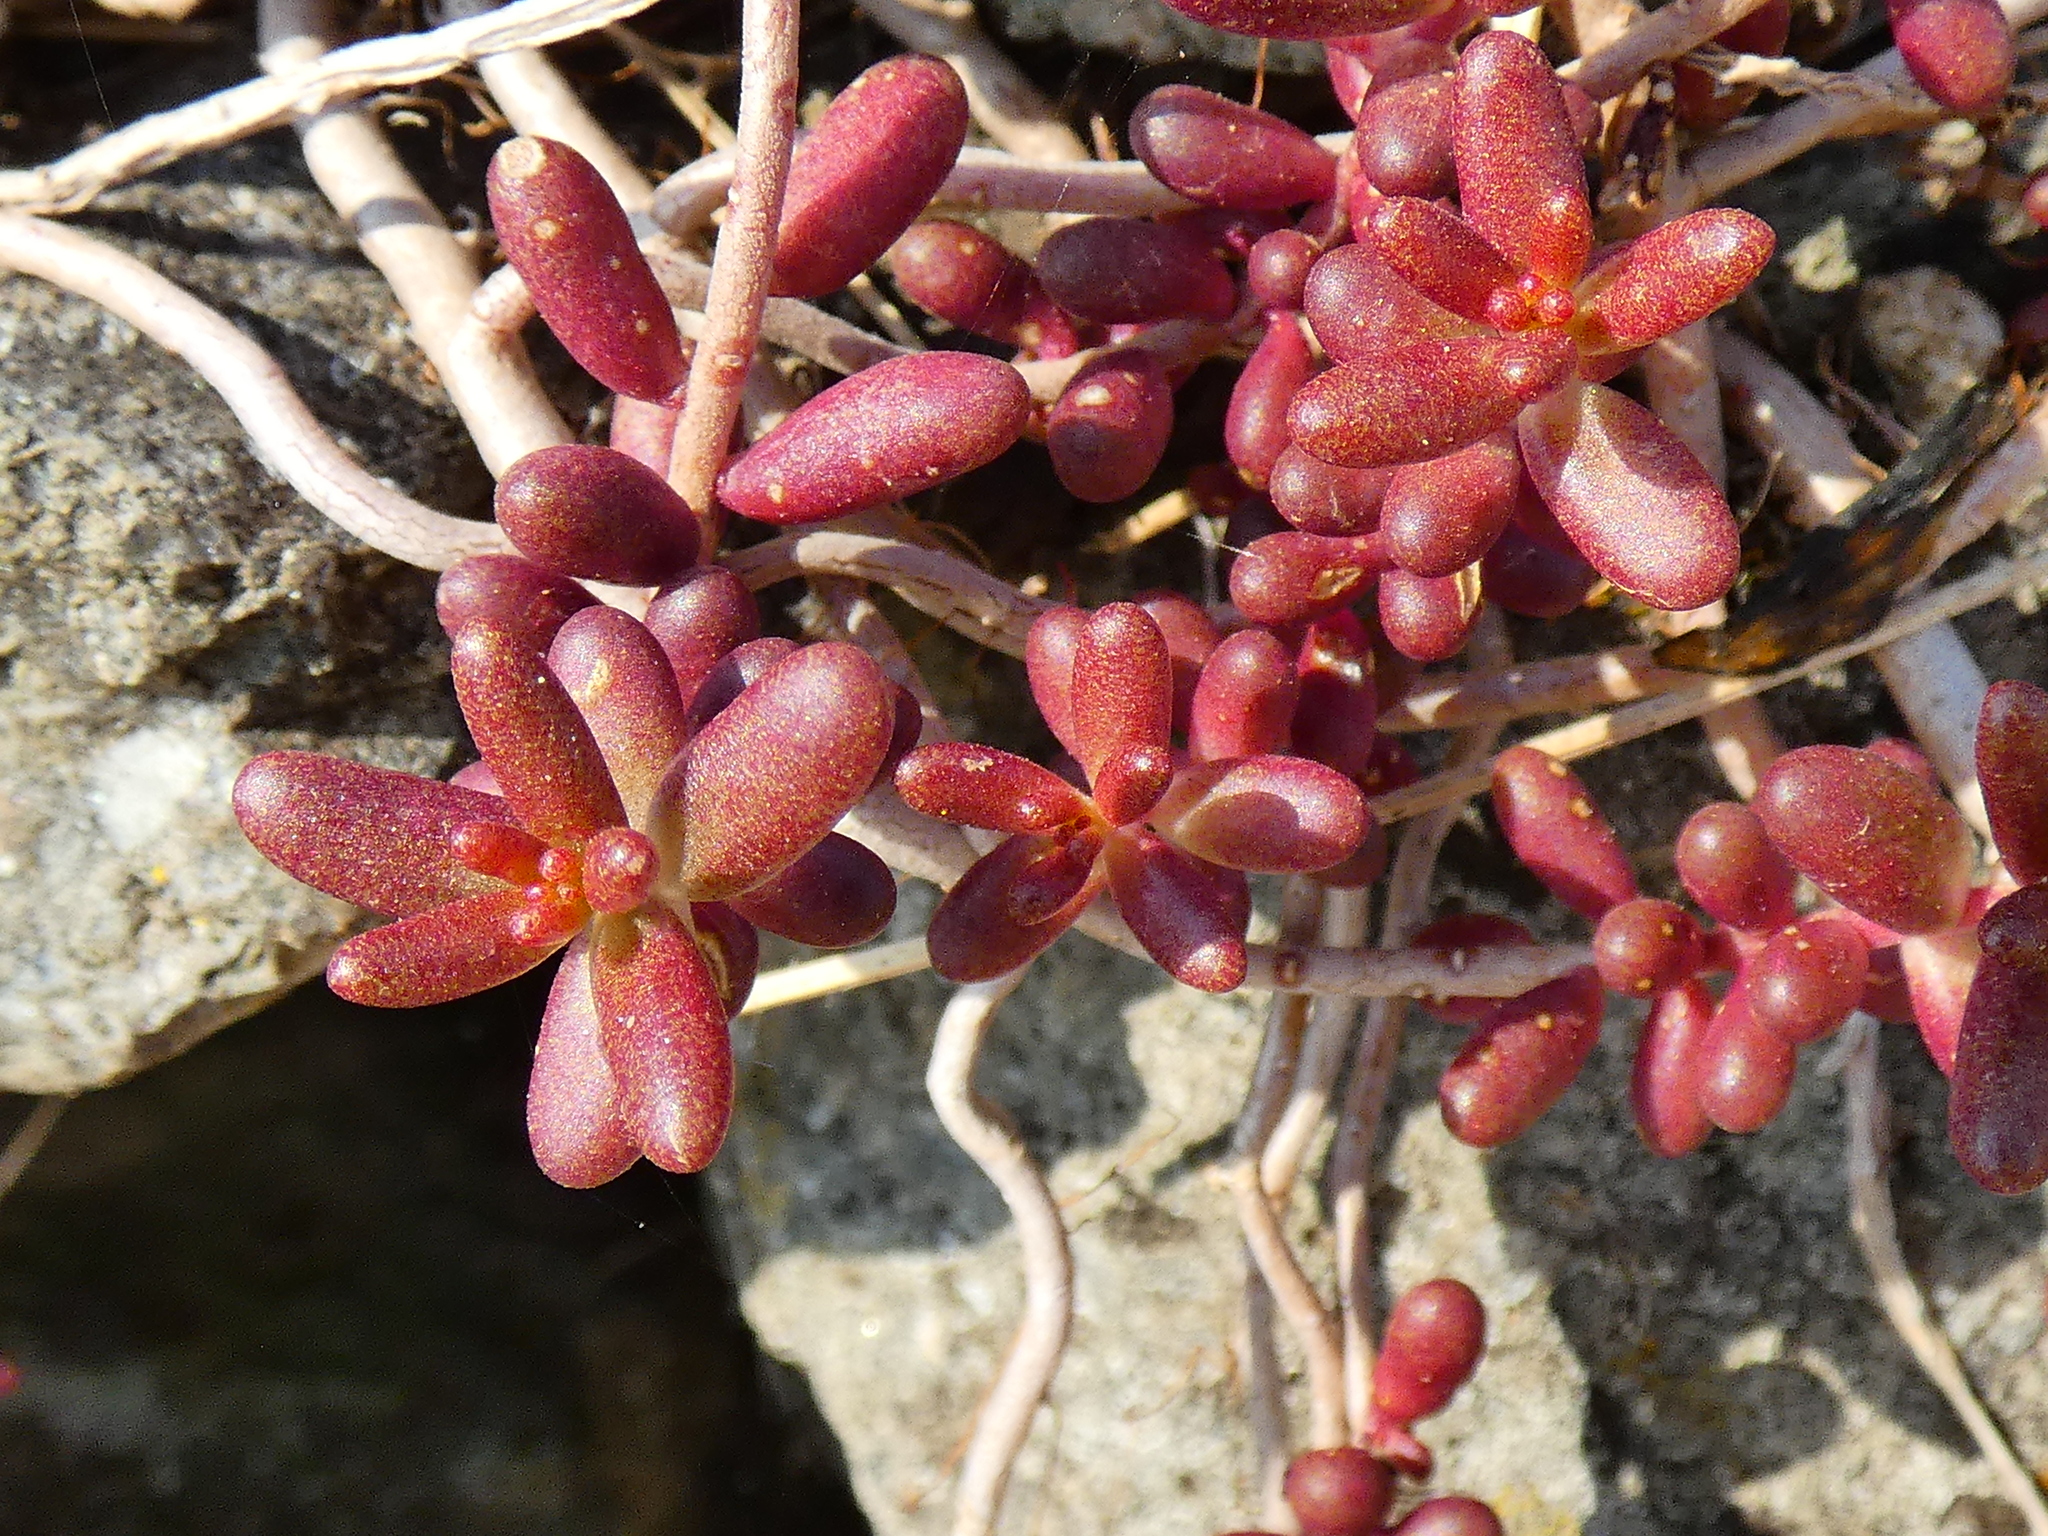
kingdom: Plantae
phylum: Tracheophyta
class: Magnoliopsida
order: Saxifragales
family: Crassulaceae
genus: Sedum
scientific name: Sedum album
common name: White stonecrop
